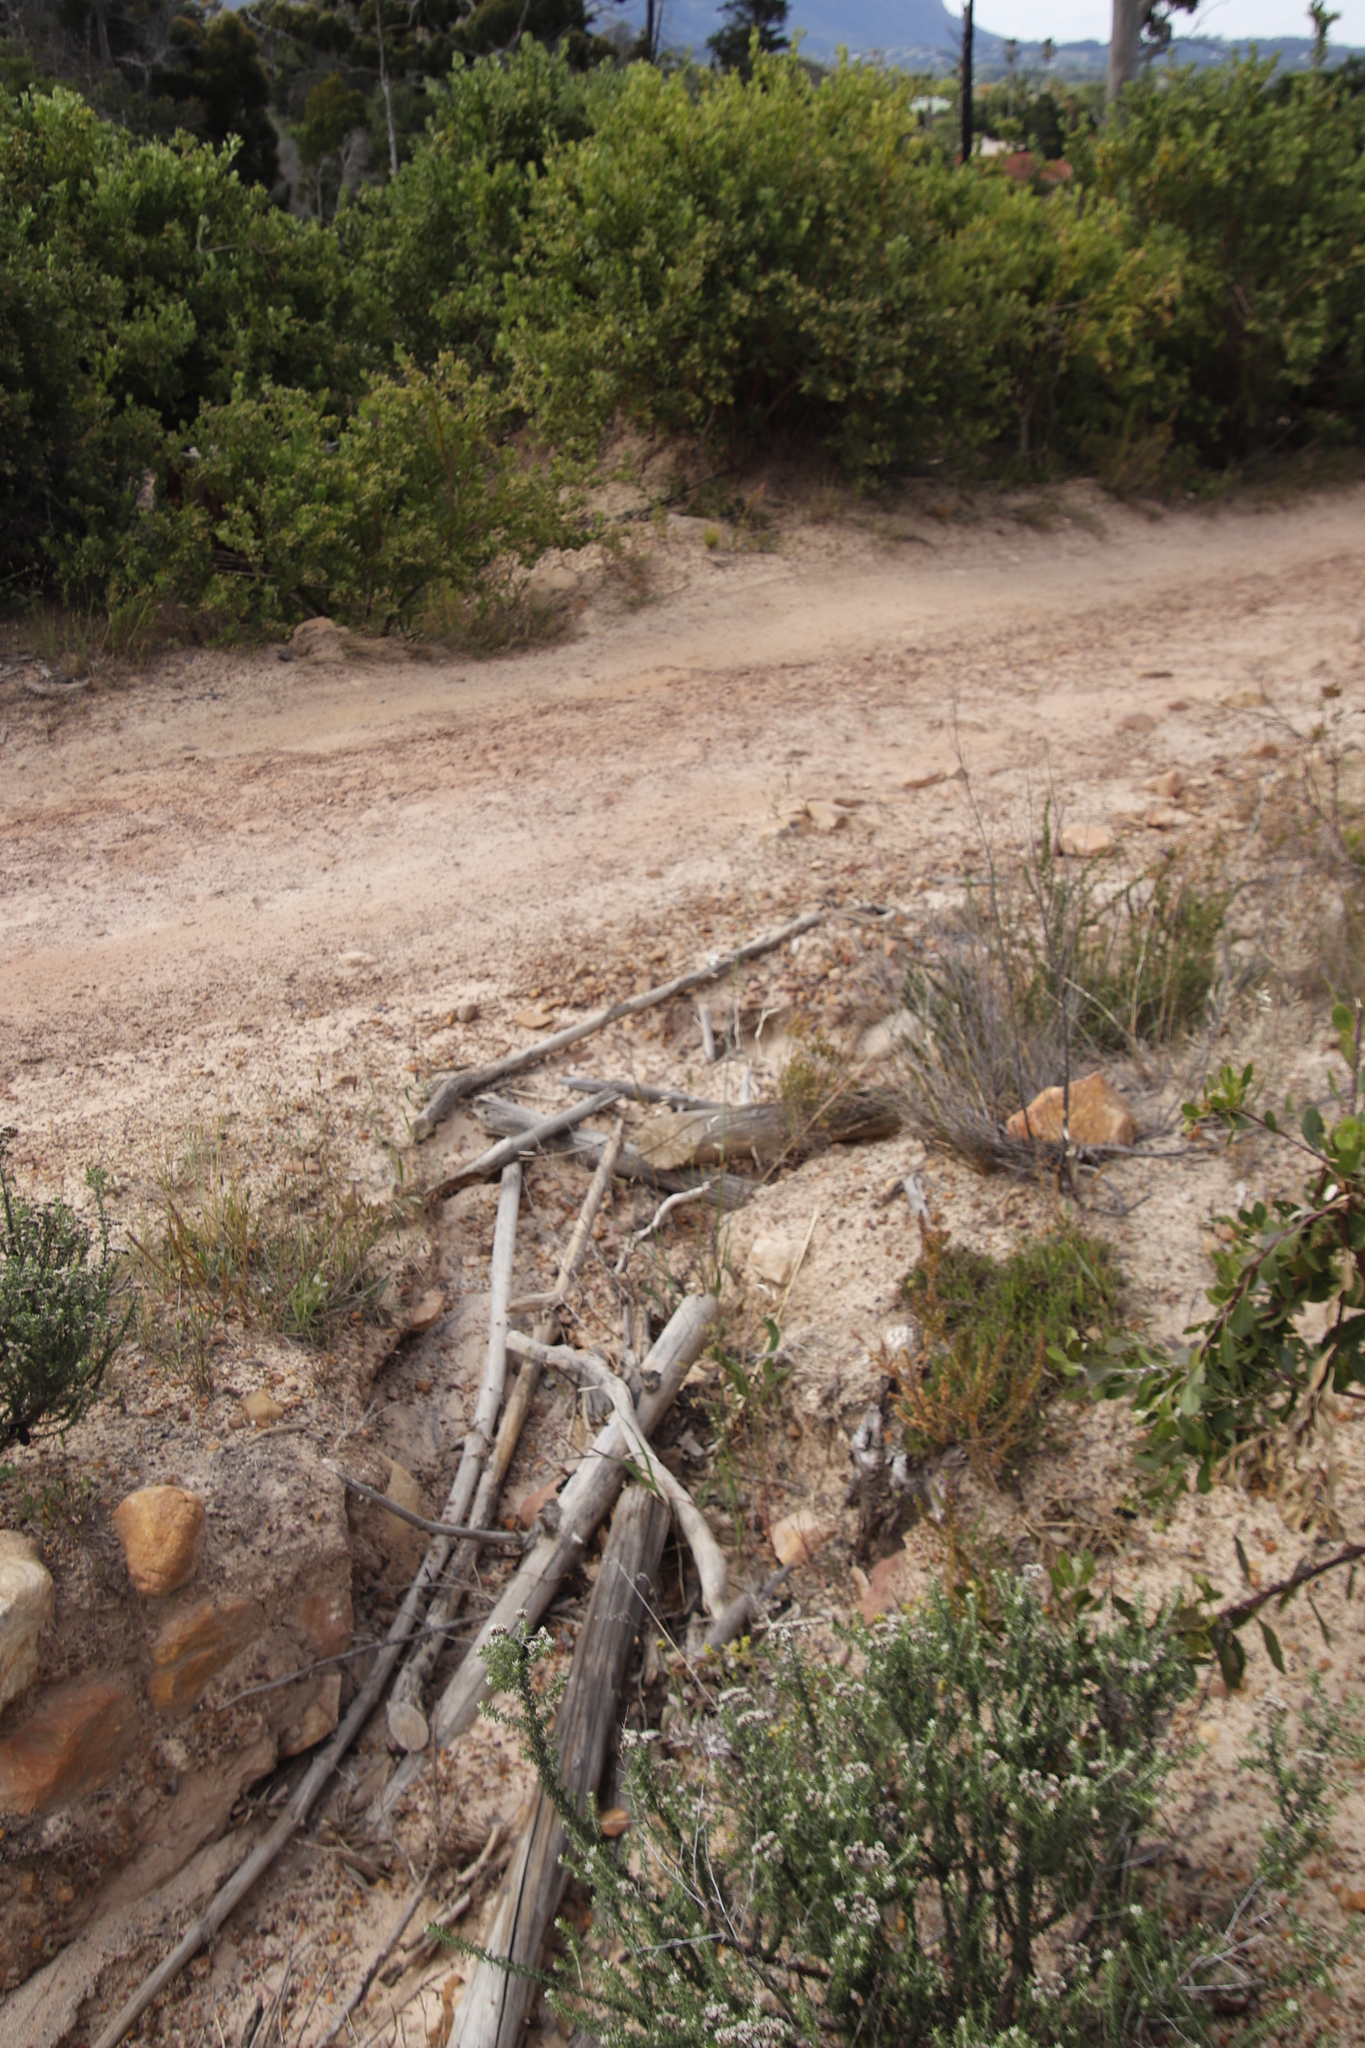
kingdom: Plantae
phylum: Tracheophyta
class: Magnoliopsida
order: Asterales
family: Asteraceae
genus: Metalasia
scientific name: Metalasia densa
